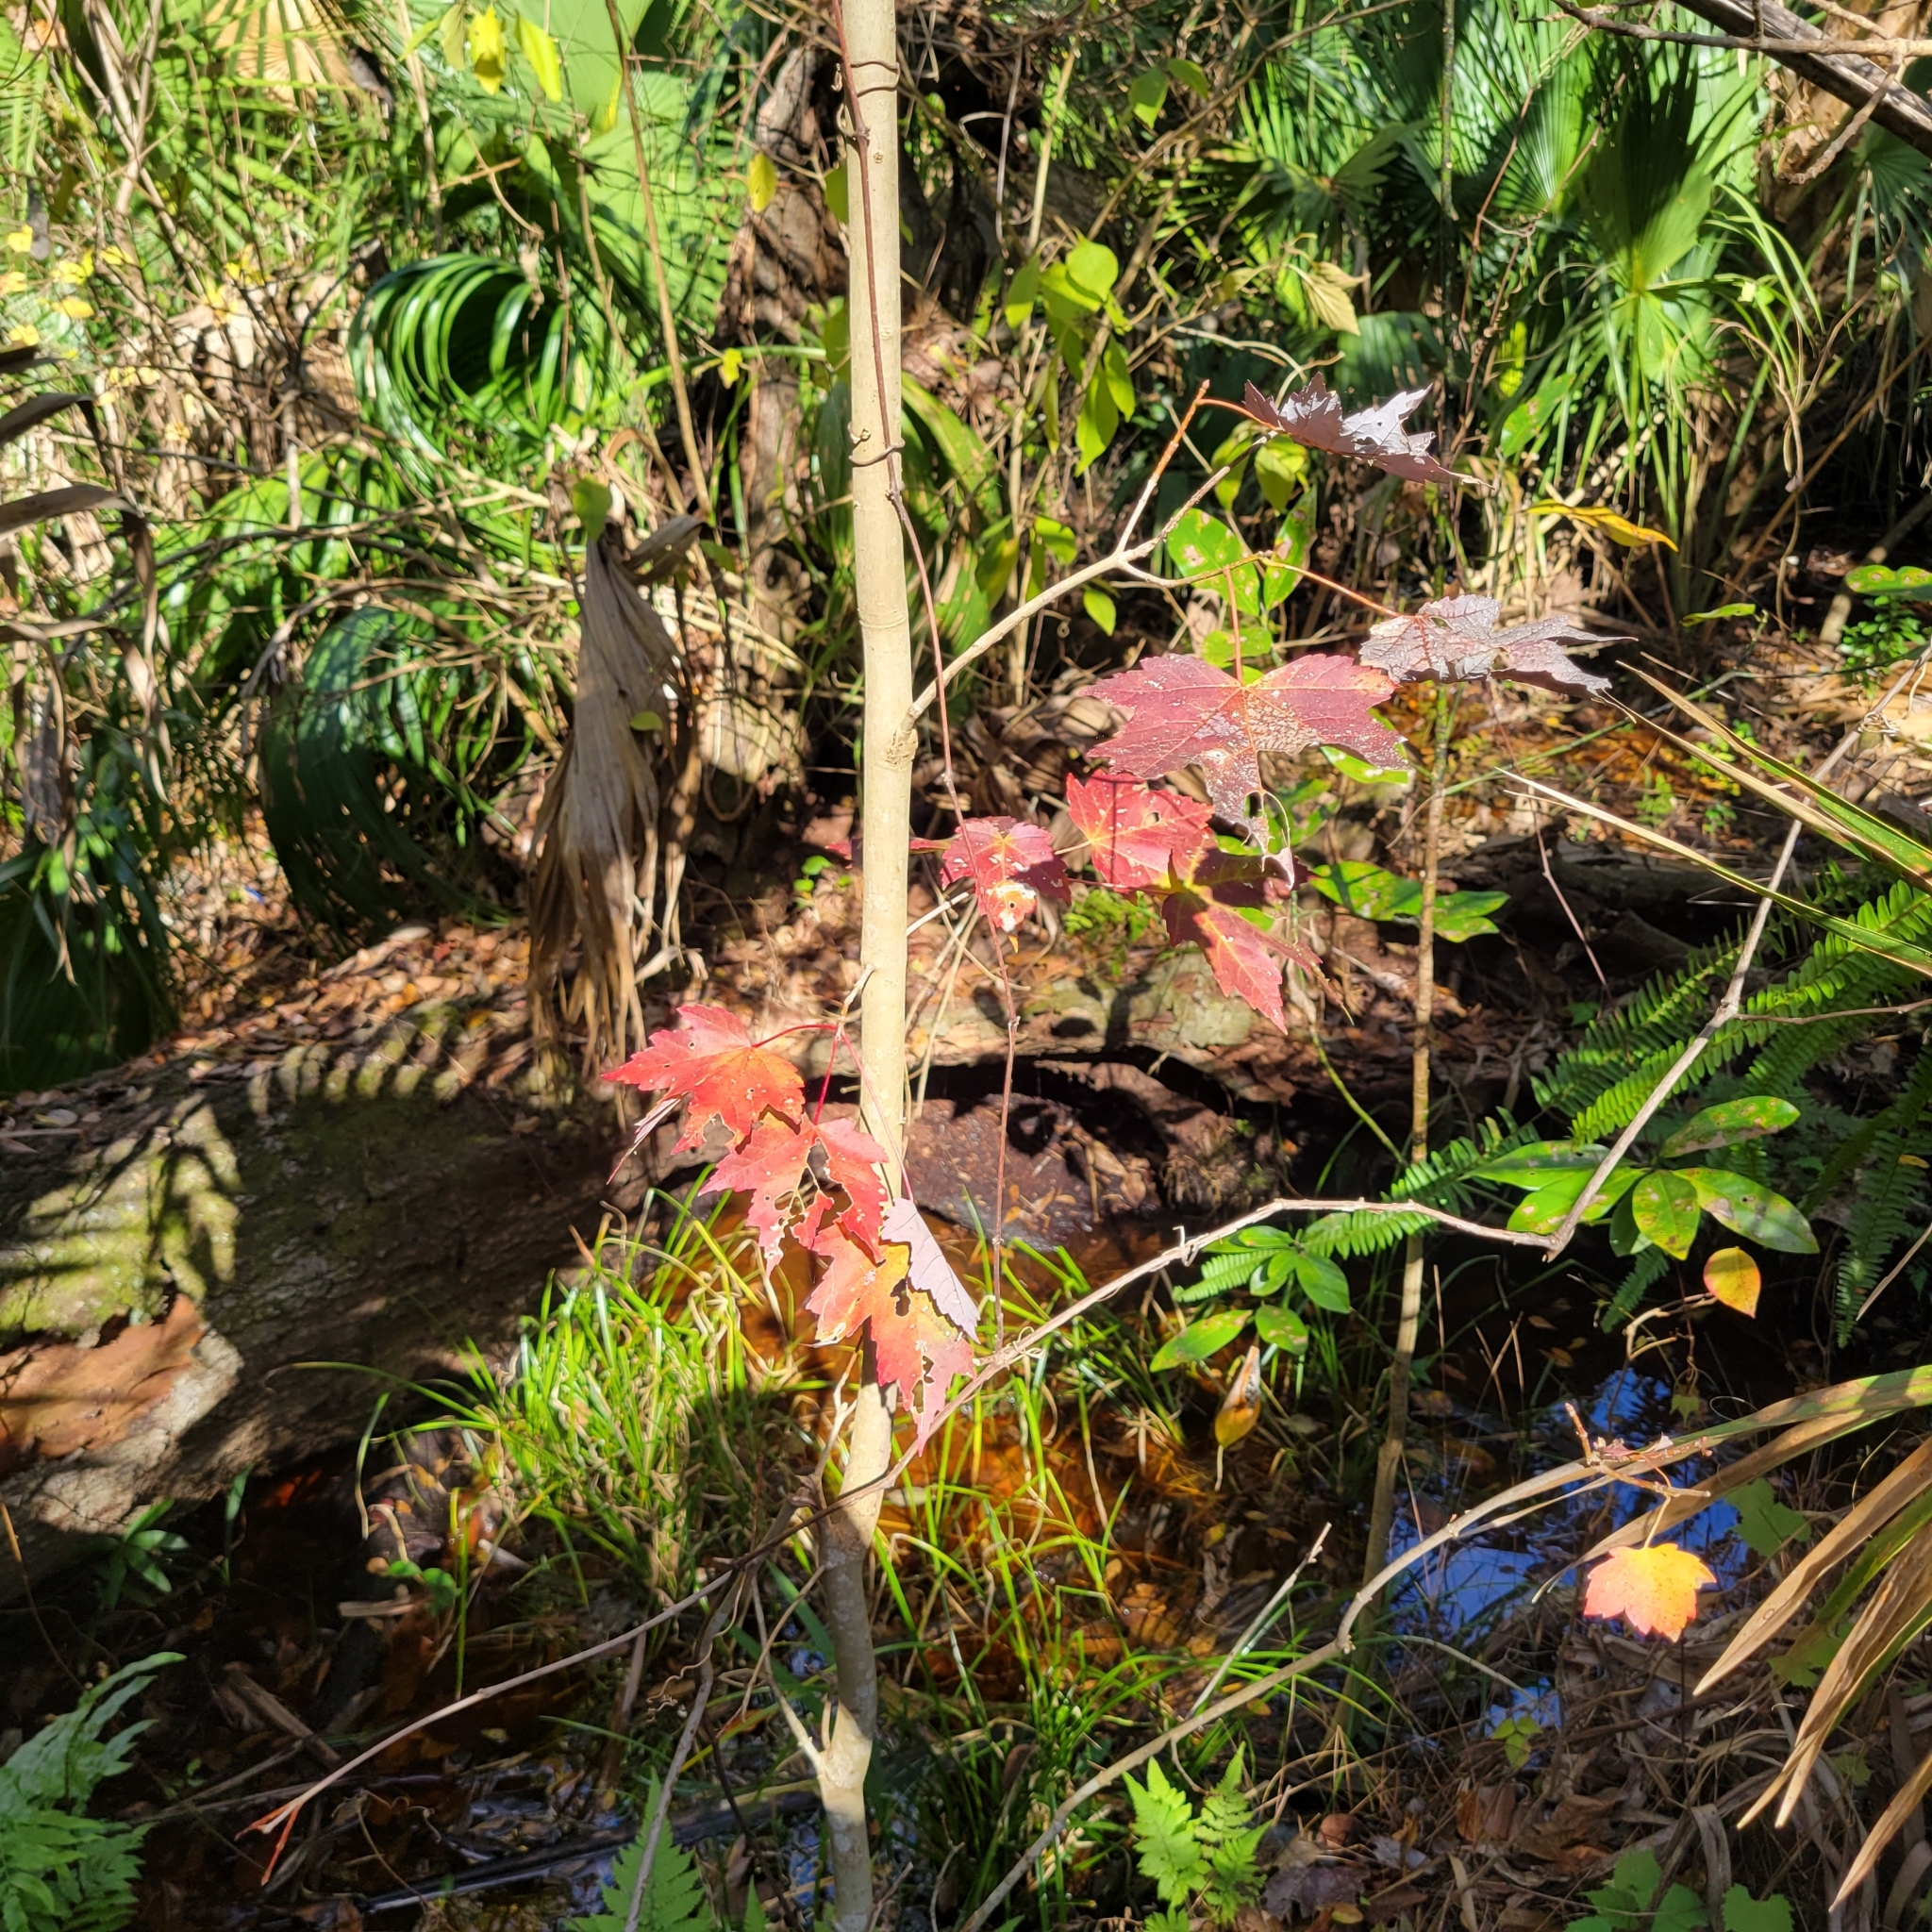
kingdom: Plantae
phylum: Tracheophyta
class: Magnoliopsida
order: Sapindales
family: Sapindaceae
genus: Acer
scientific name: Acer rubrum
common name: Red maple
